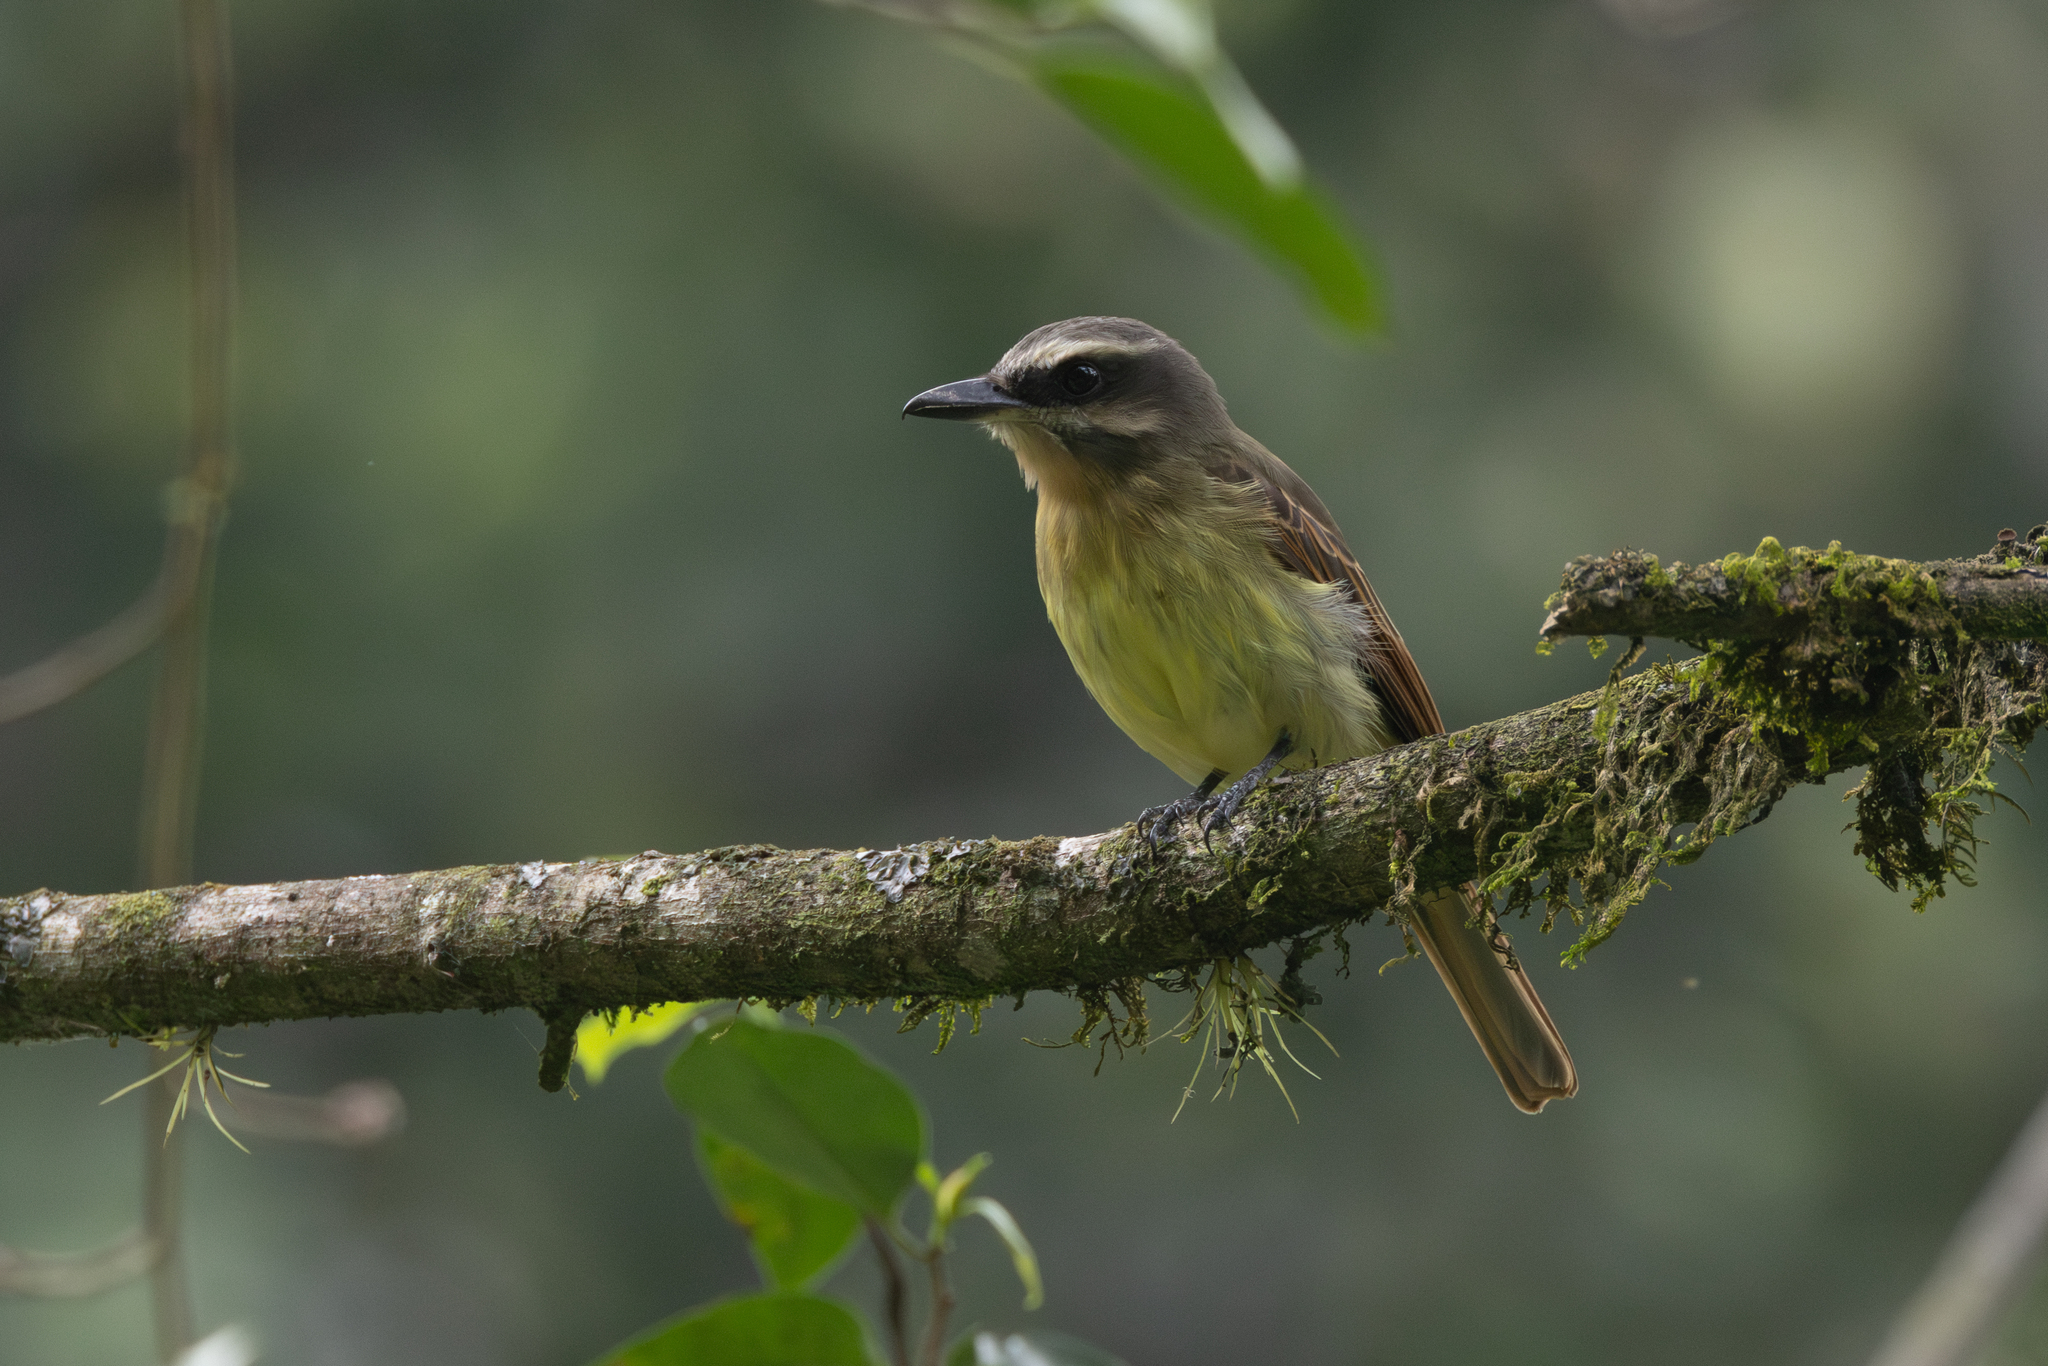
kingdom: Animalia
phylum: Chordata
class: Aves
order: Passeriformes
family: Tyrannidae
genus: Myiodynastes
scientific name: Myiodynastes hemichrysus
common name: Golden-bellied flycatcher
